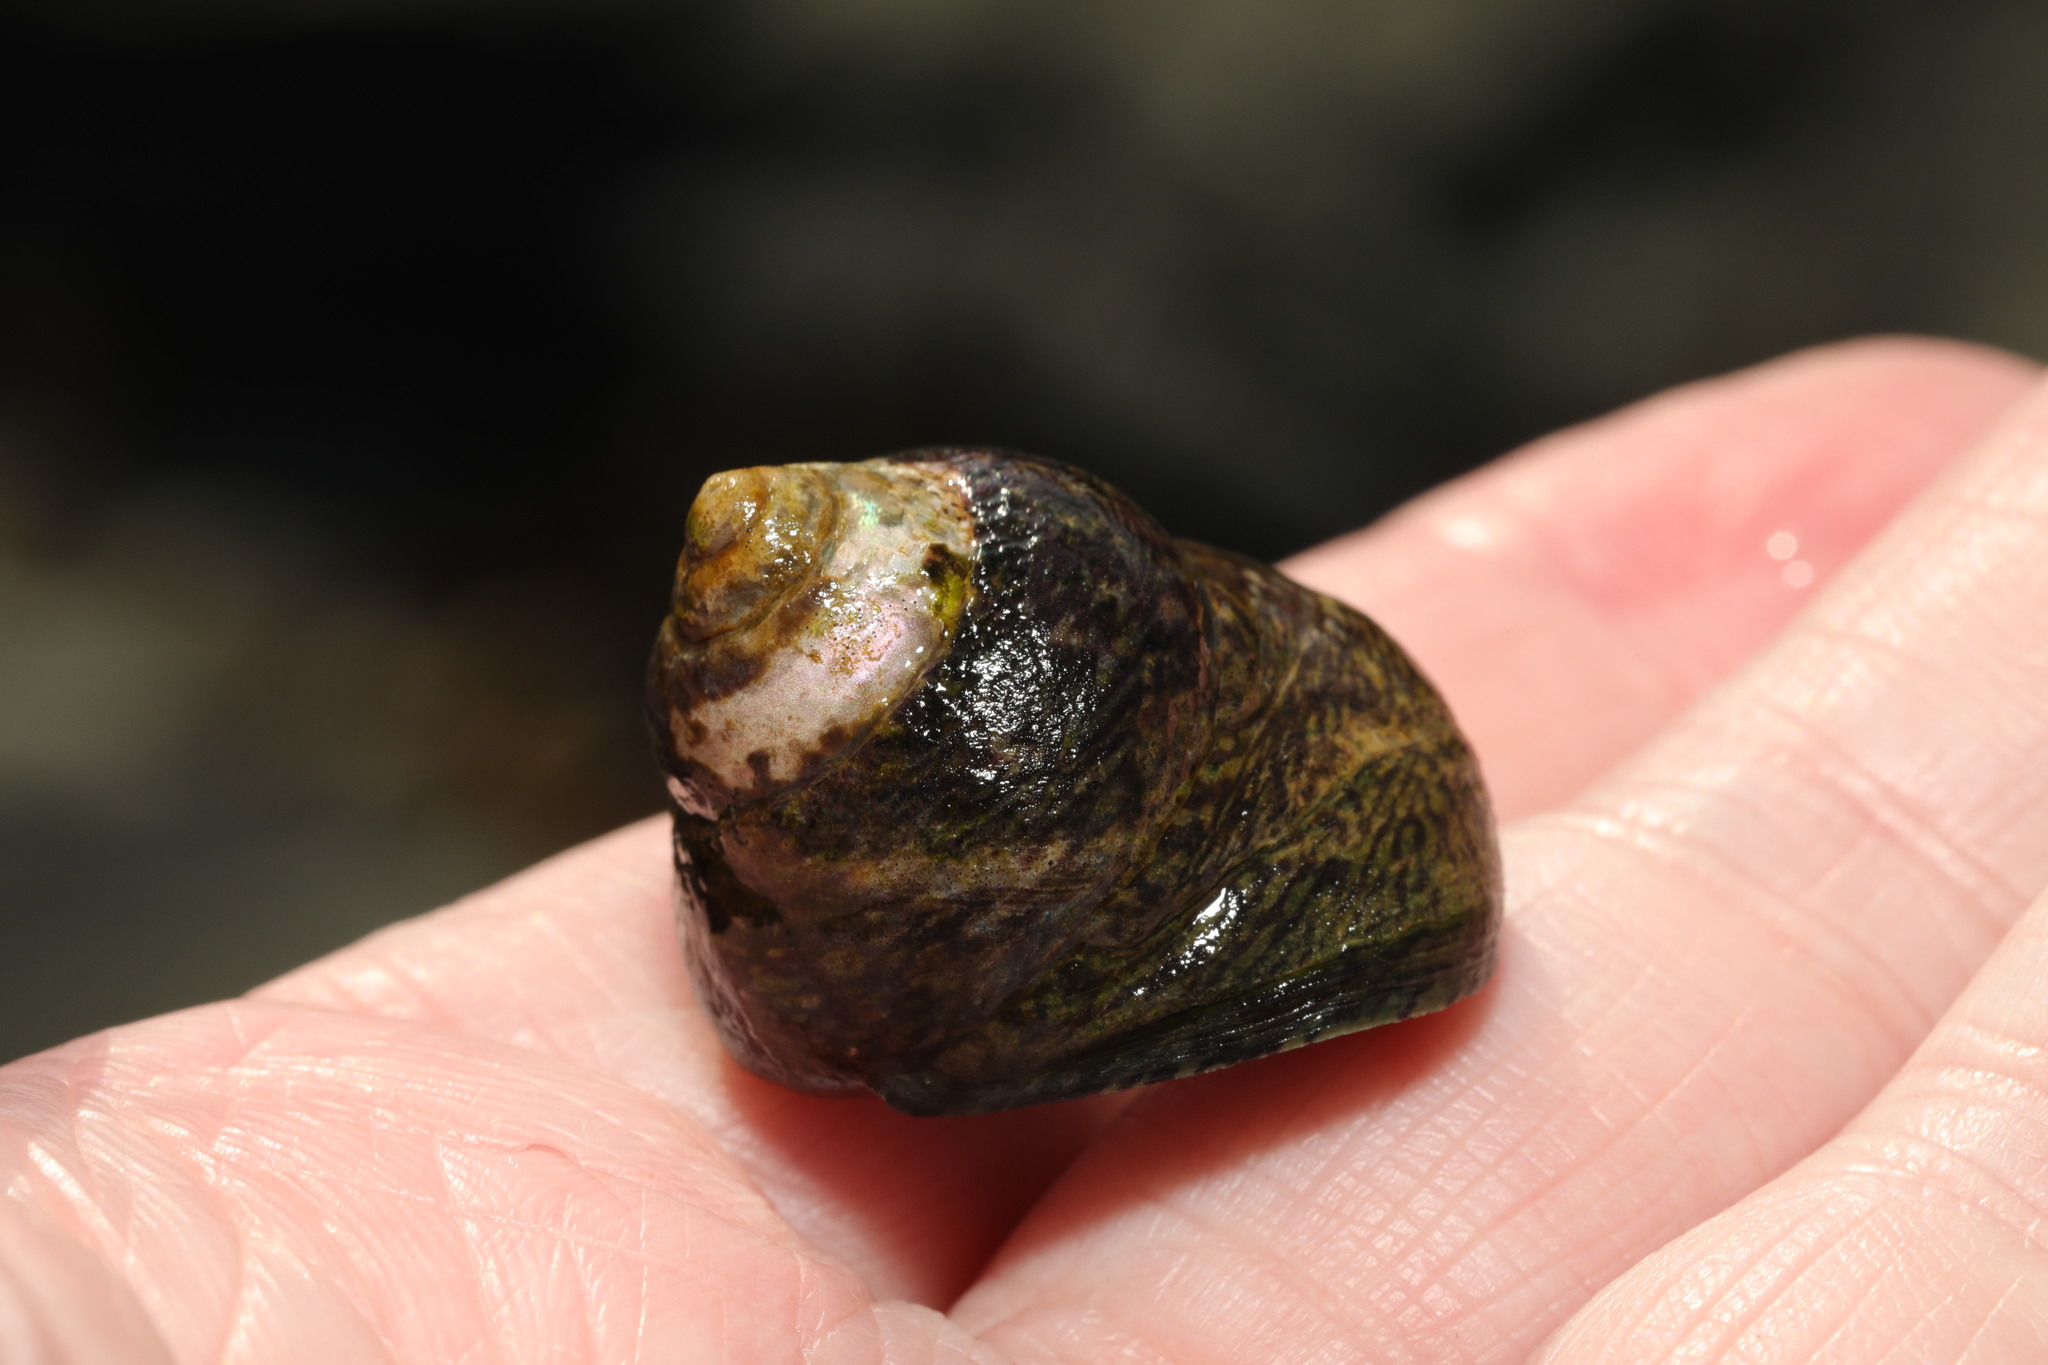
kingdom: Animalia
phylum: Mollusca
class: Gastropoda
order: Trochida
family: Trochidae
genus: Phorcus
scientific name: Phorcus lineatus
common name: Toothed top shell
